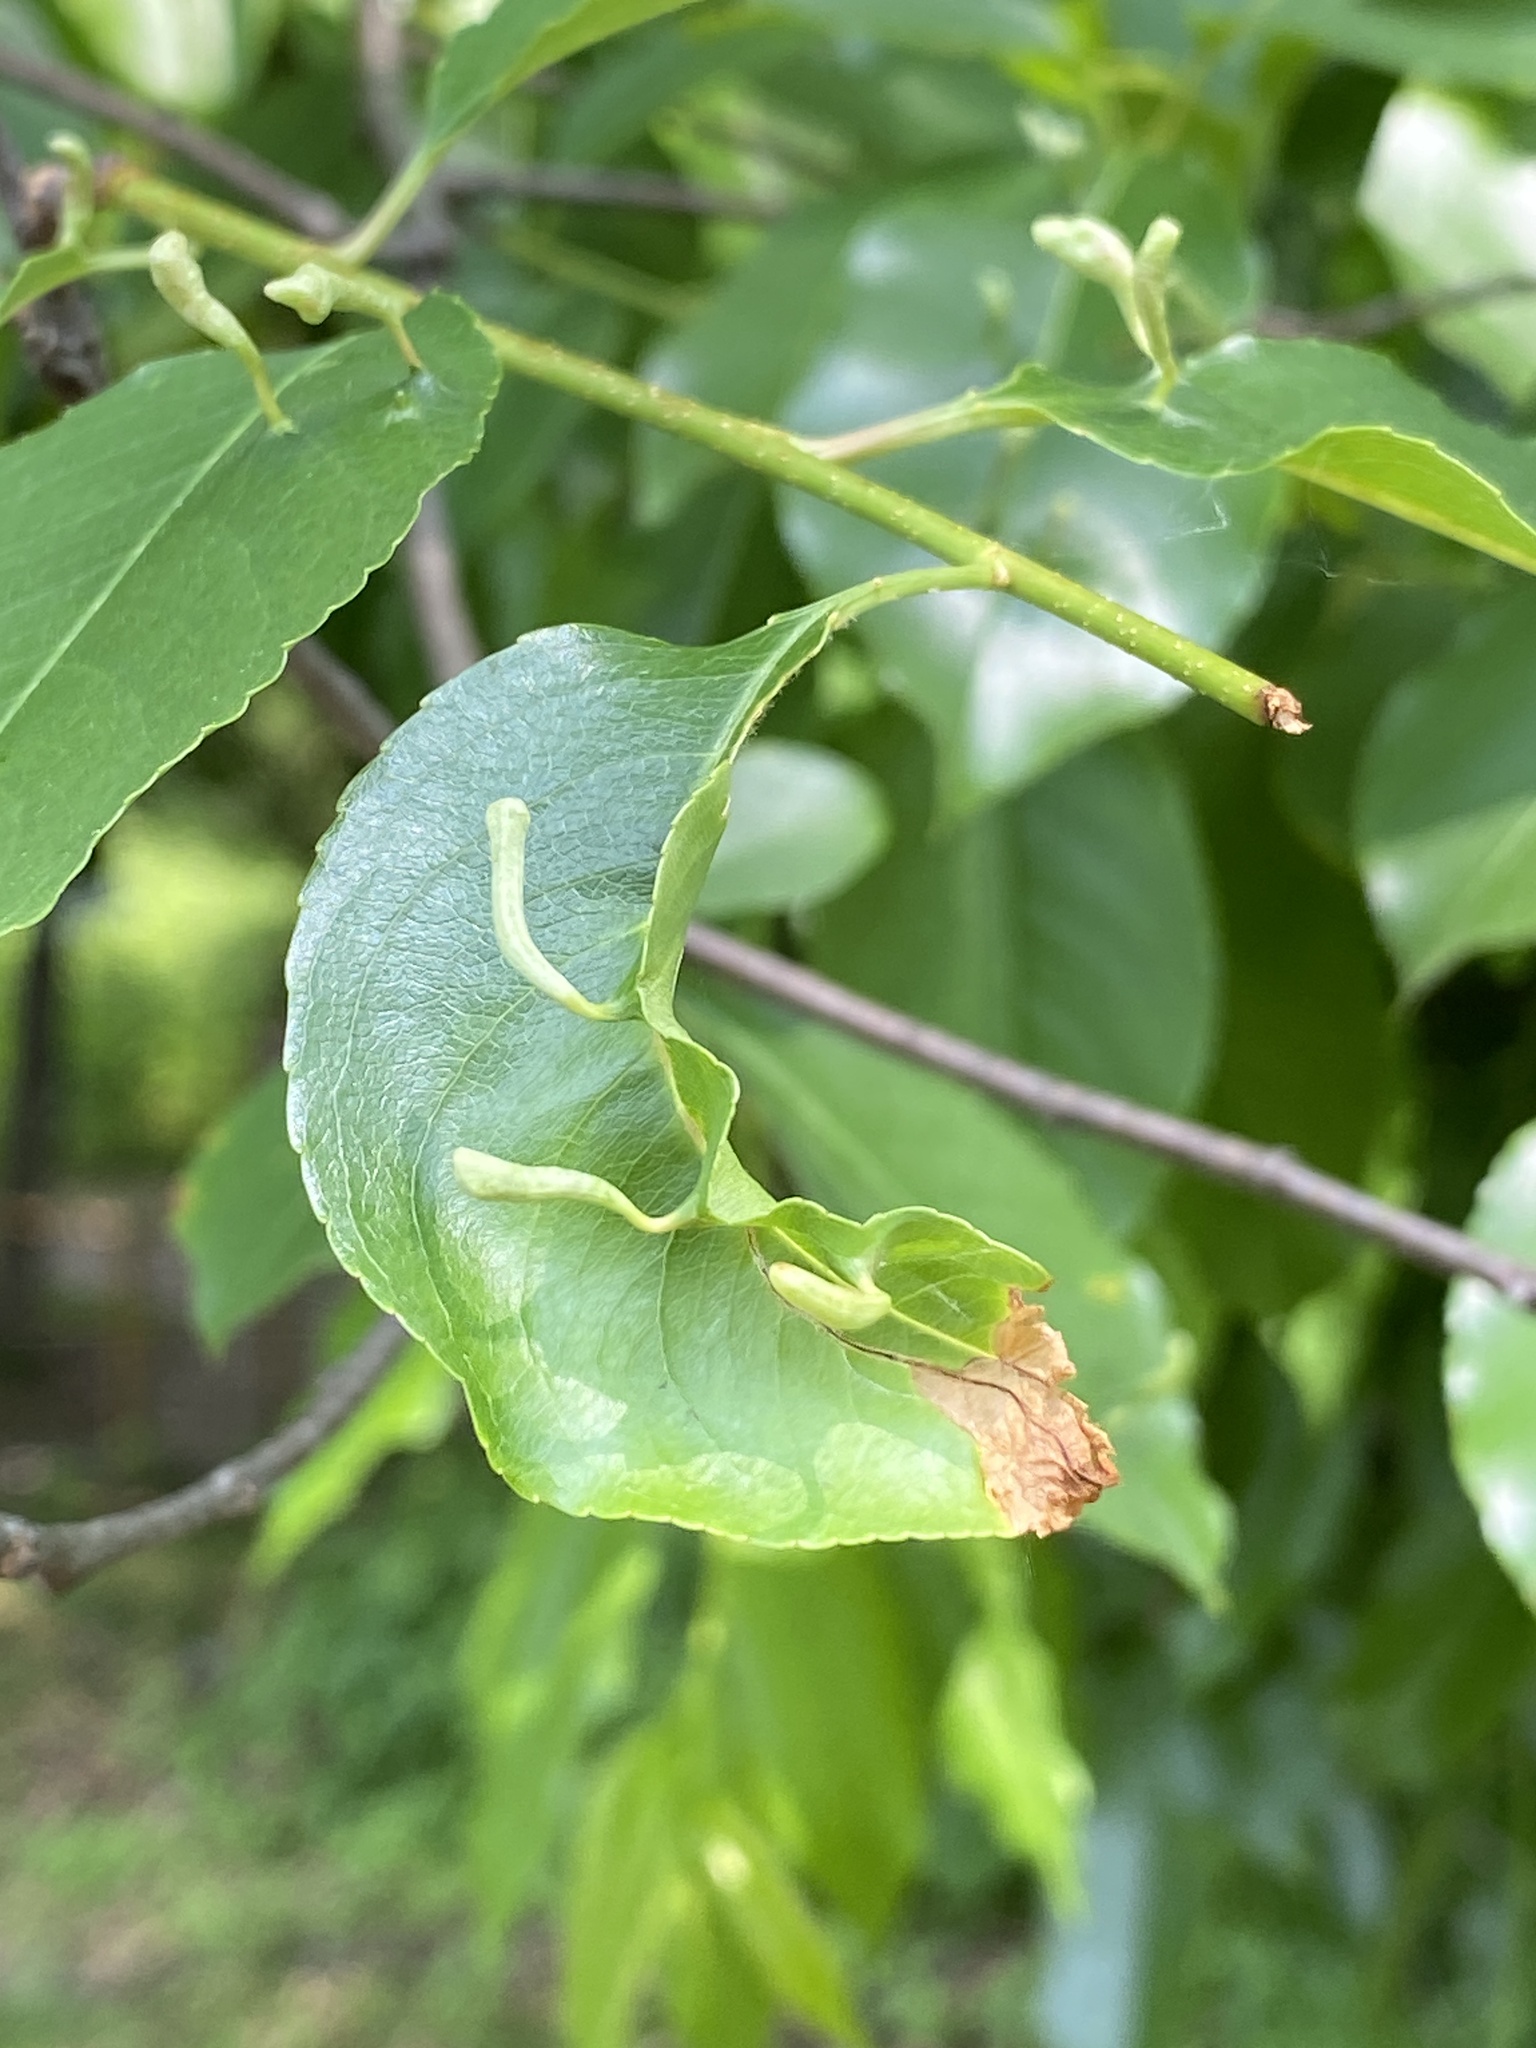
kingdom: Animalia
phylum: Arthropoda
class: Arachnida
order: Trombidiformes
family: Eriophyidae
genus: Eriophyes
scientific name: Eriophyes
